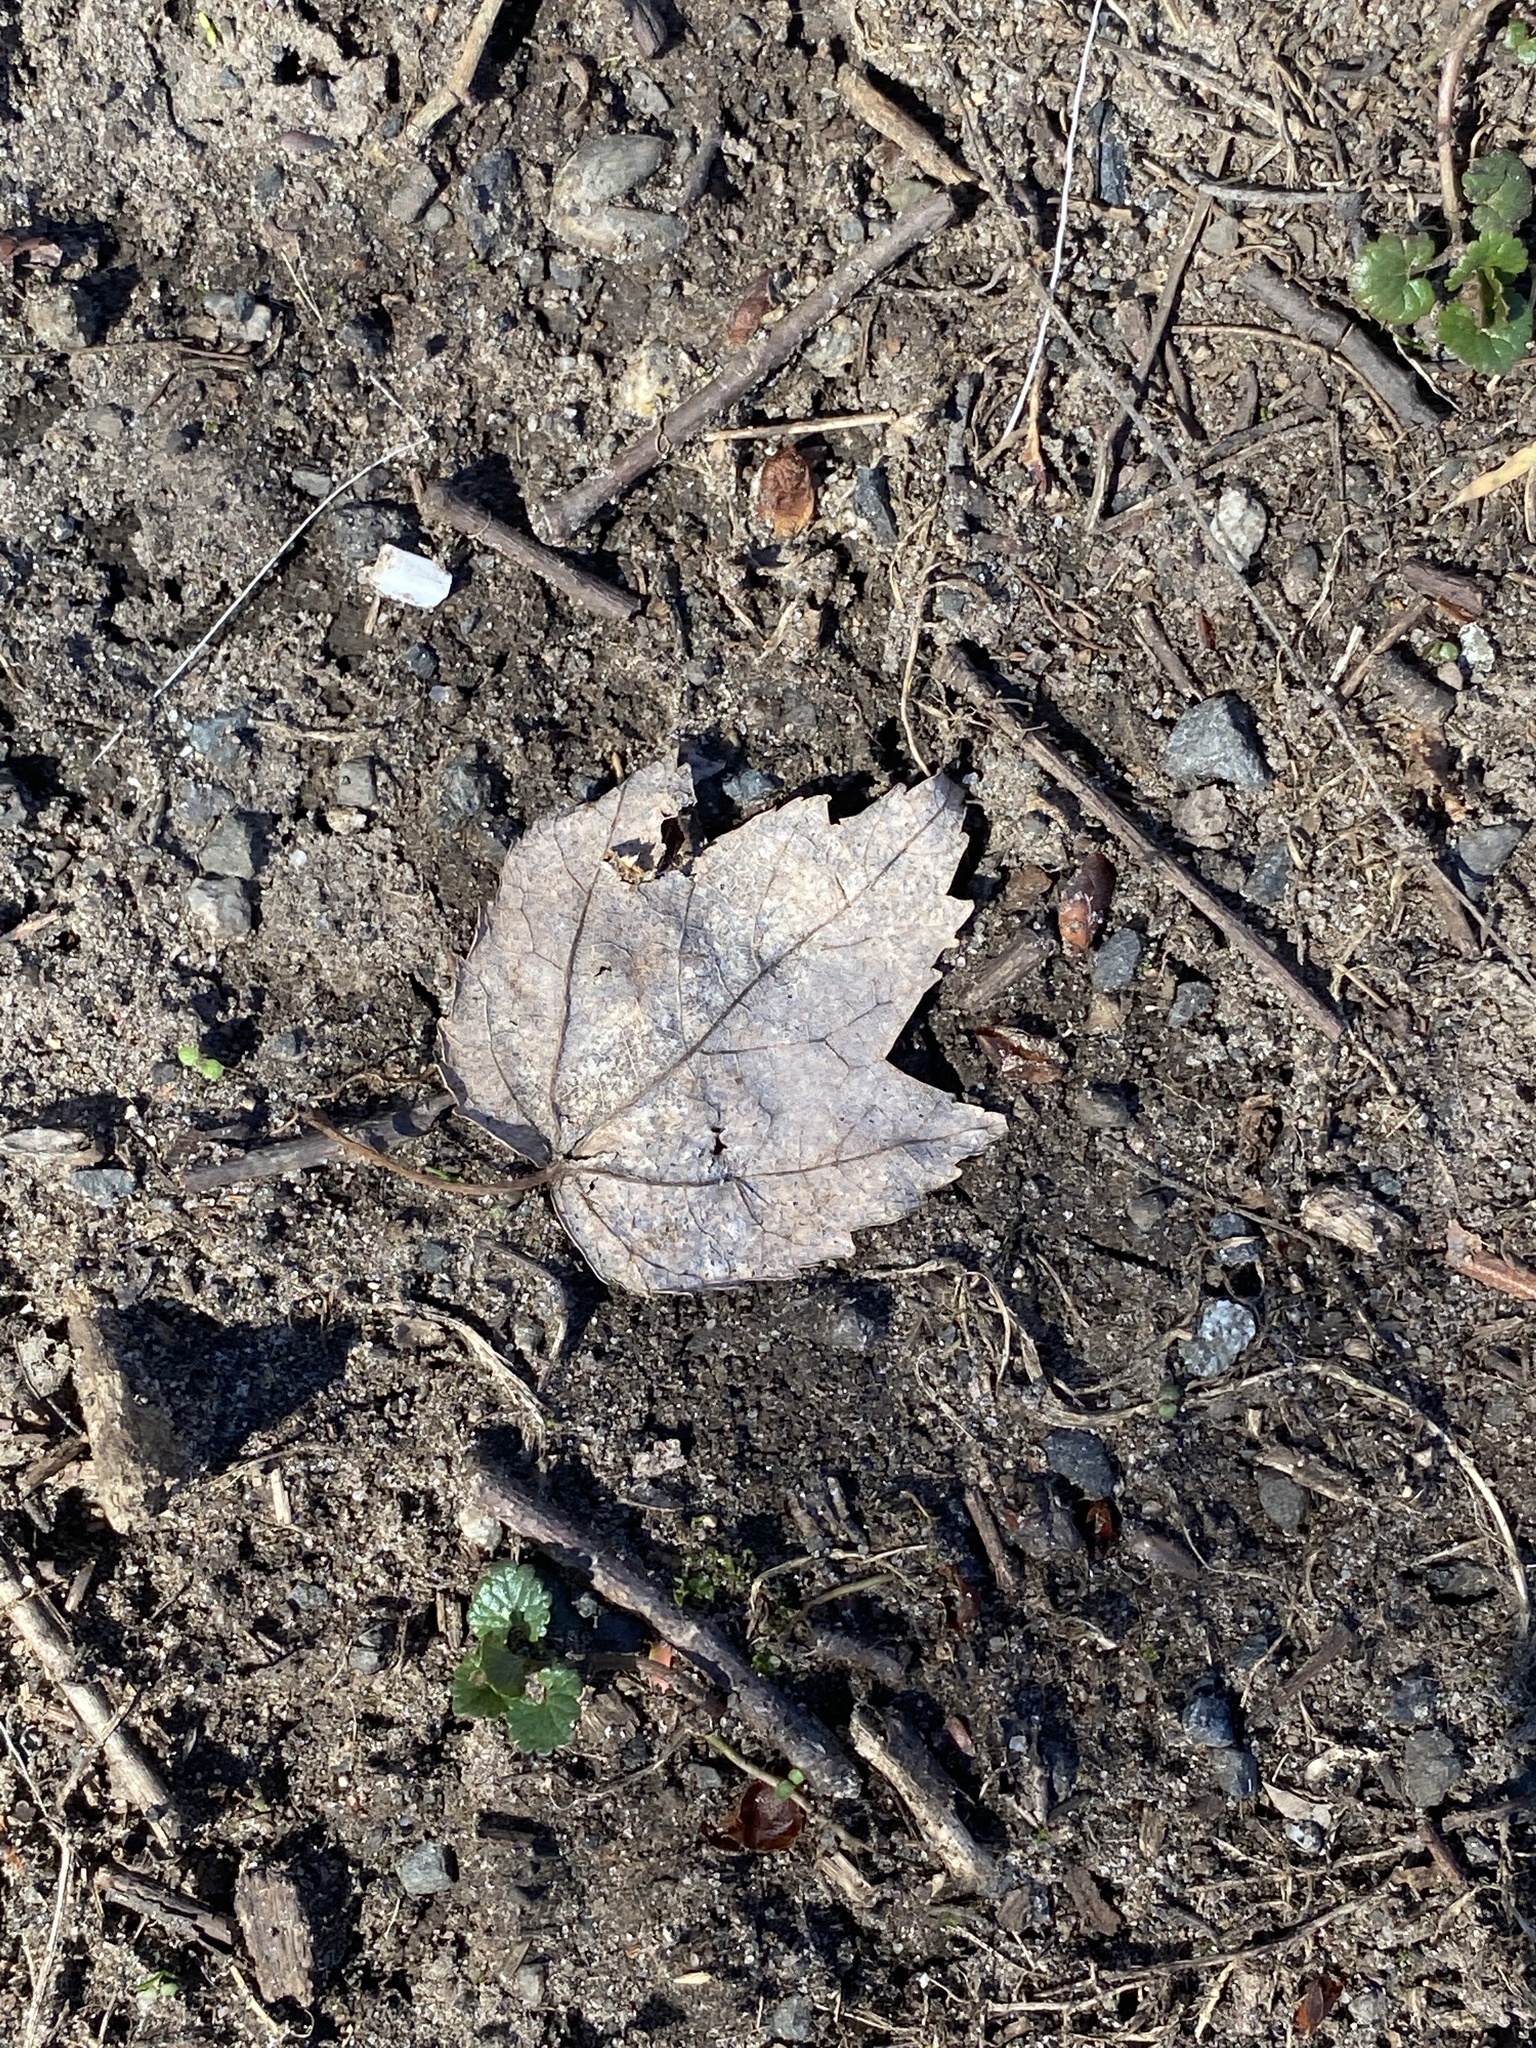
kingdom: Plantae
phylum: Tracheophyta
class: Magnoliopsida
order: Sapindales
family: Sapindaceae
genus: Acer
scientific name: Acer rubrum
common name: Red maple
